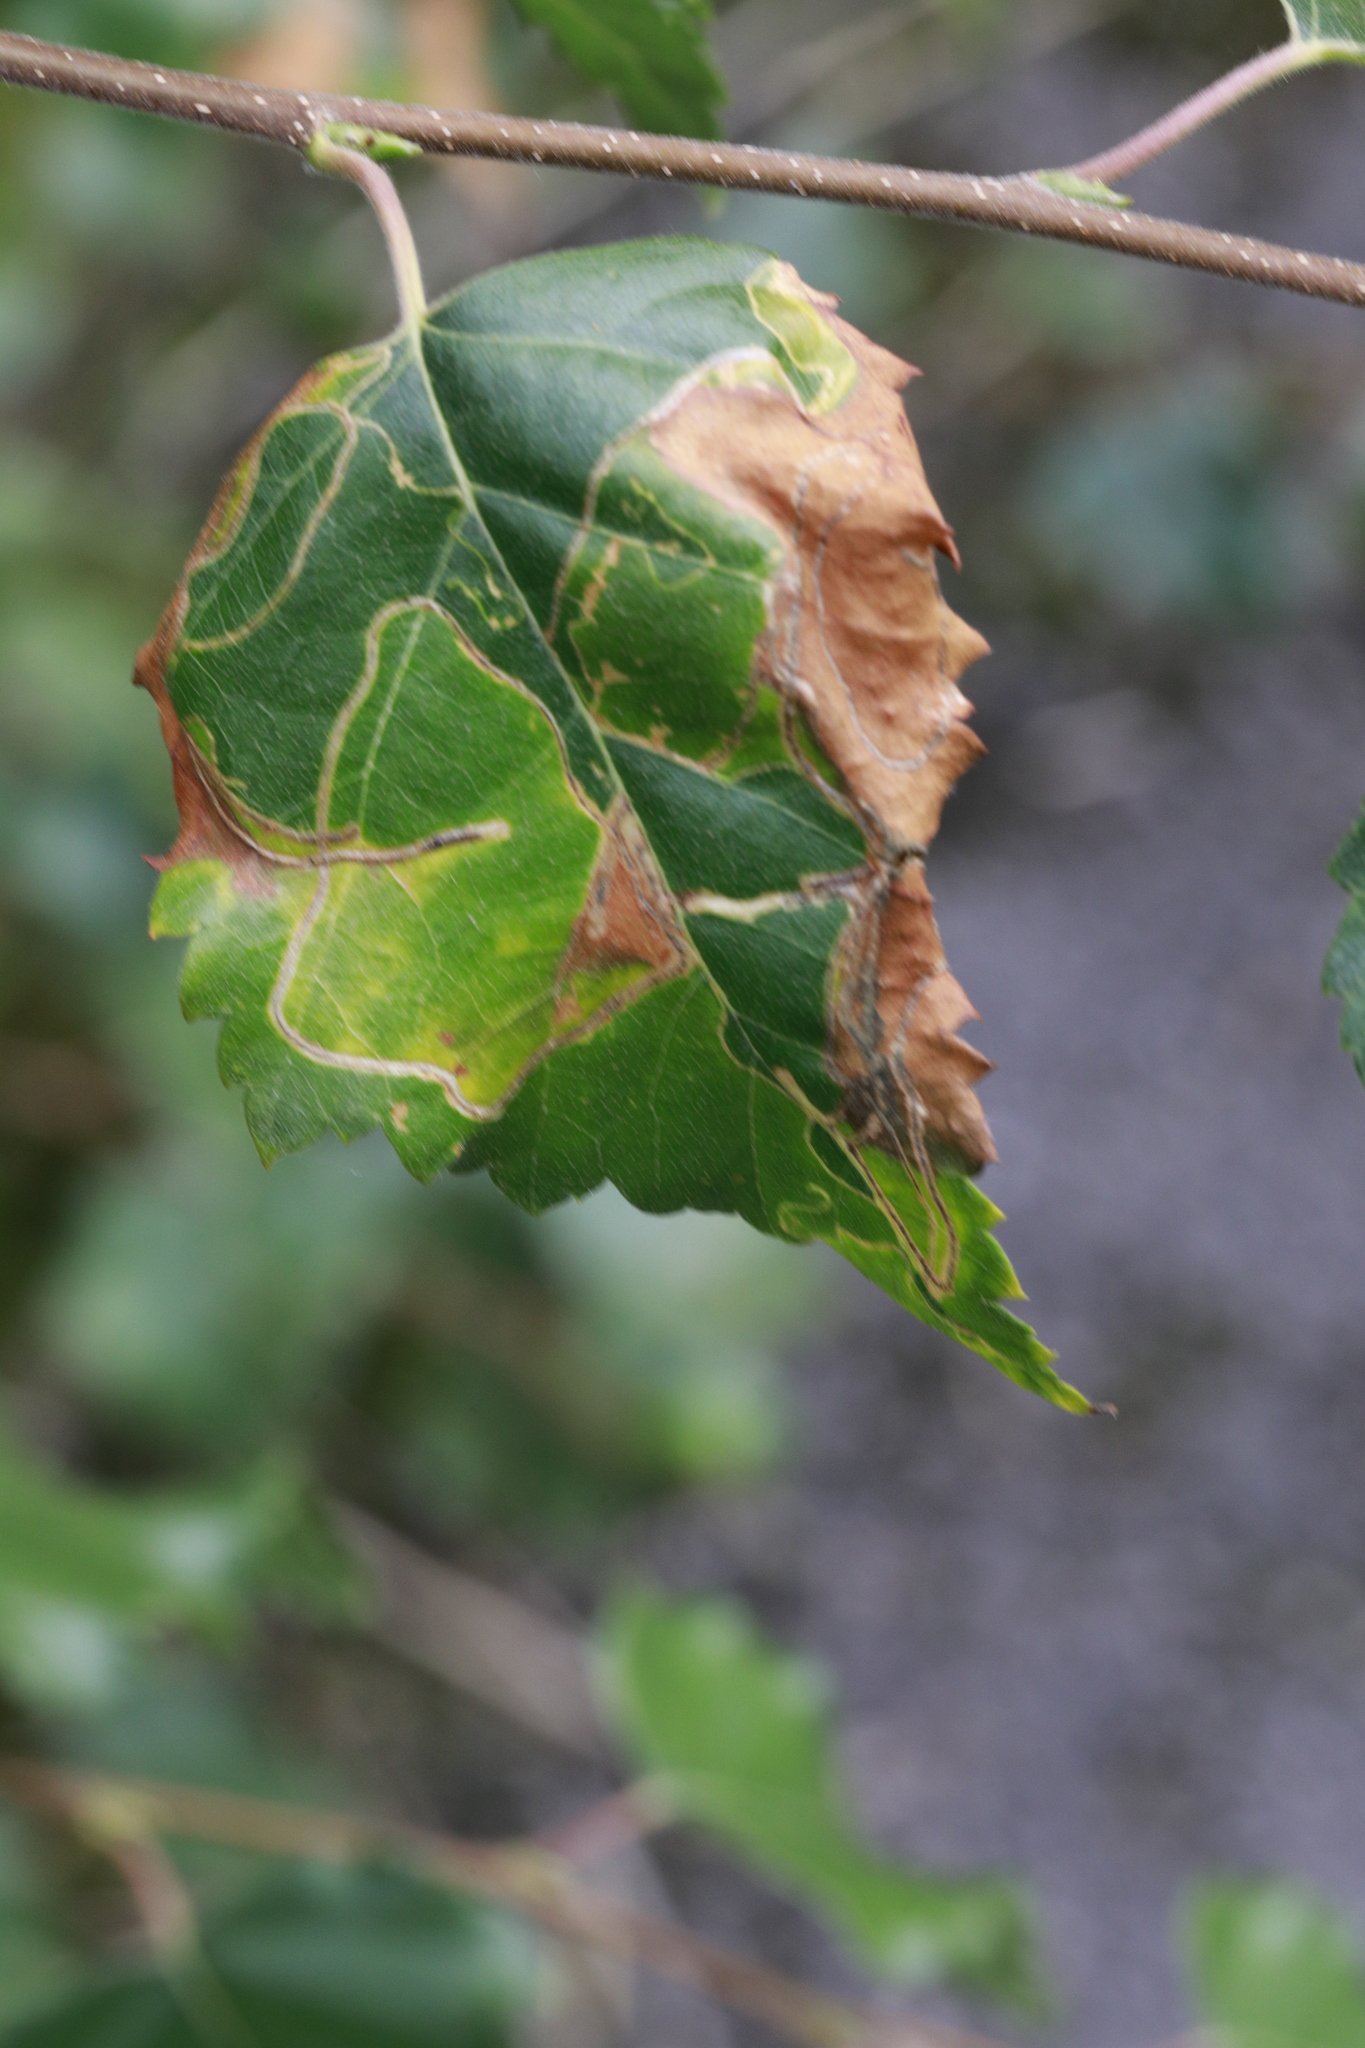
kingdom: Animalia
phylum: Arthropoda
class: Insecta
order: Hymenoptera
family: Tenthredinidae
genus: Scolioneura
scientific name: Scolioneura betuleti
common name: Wasp
